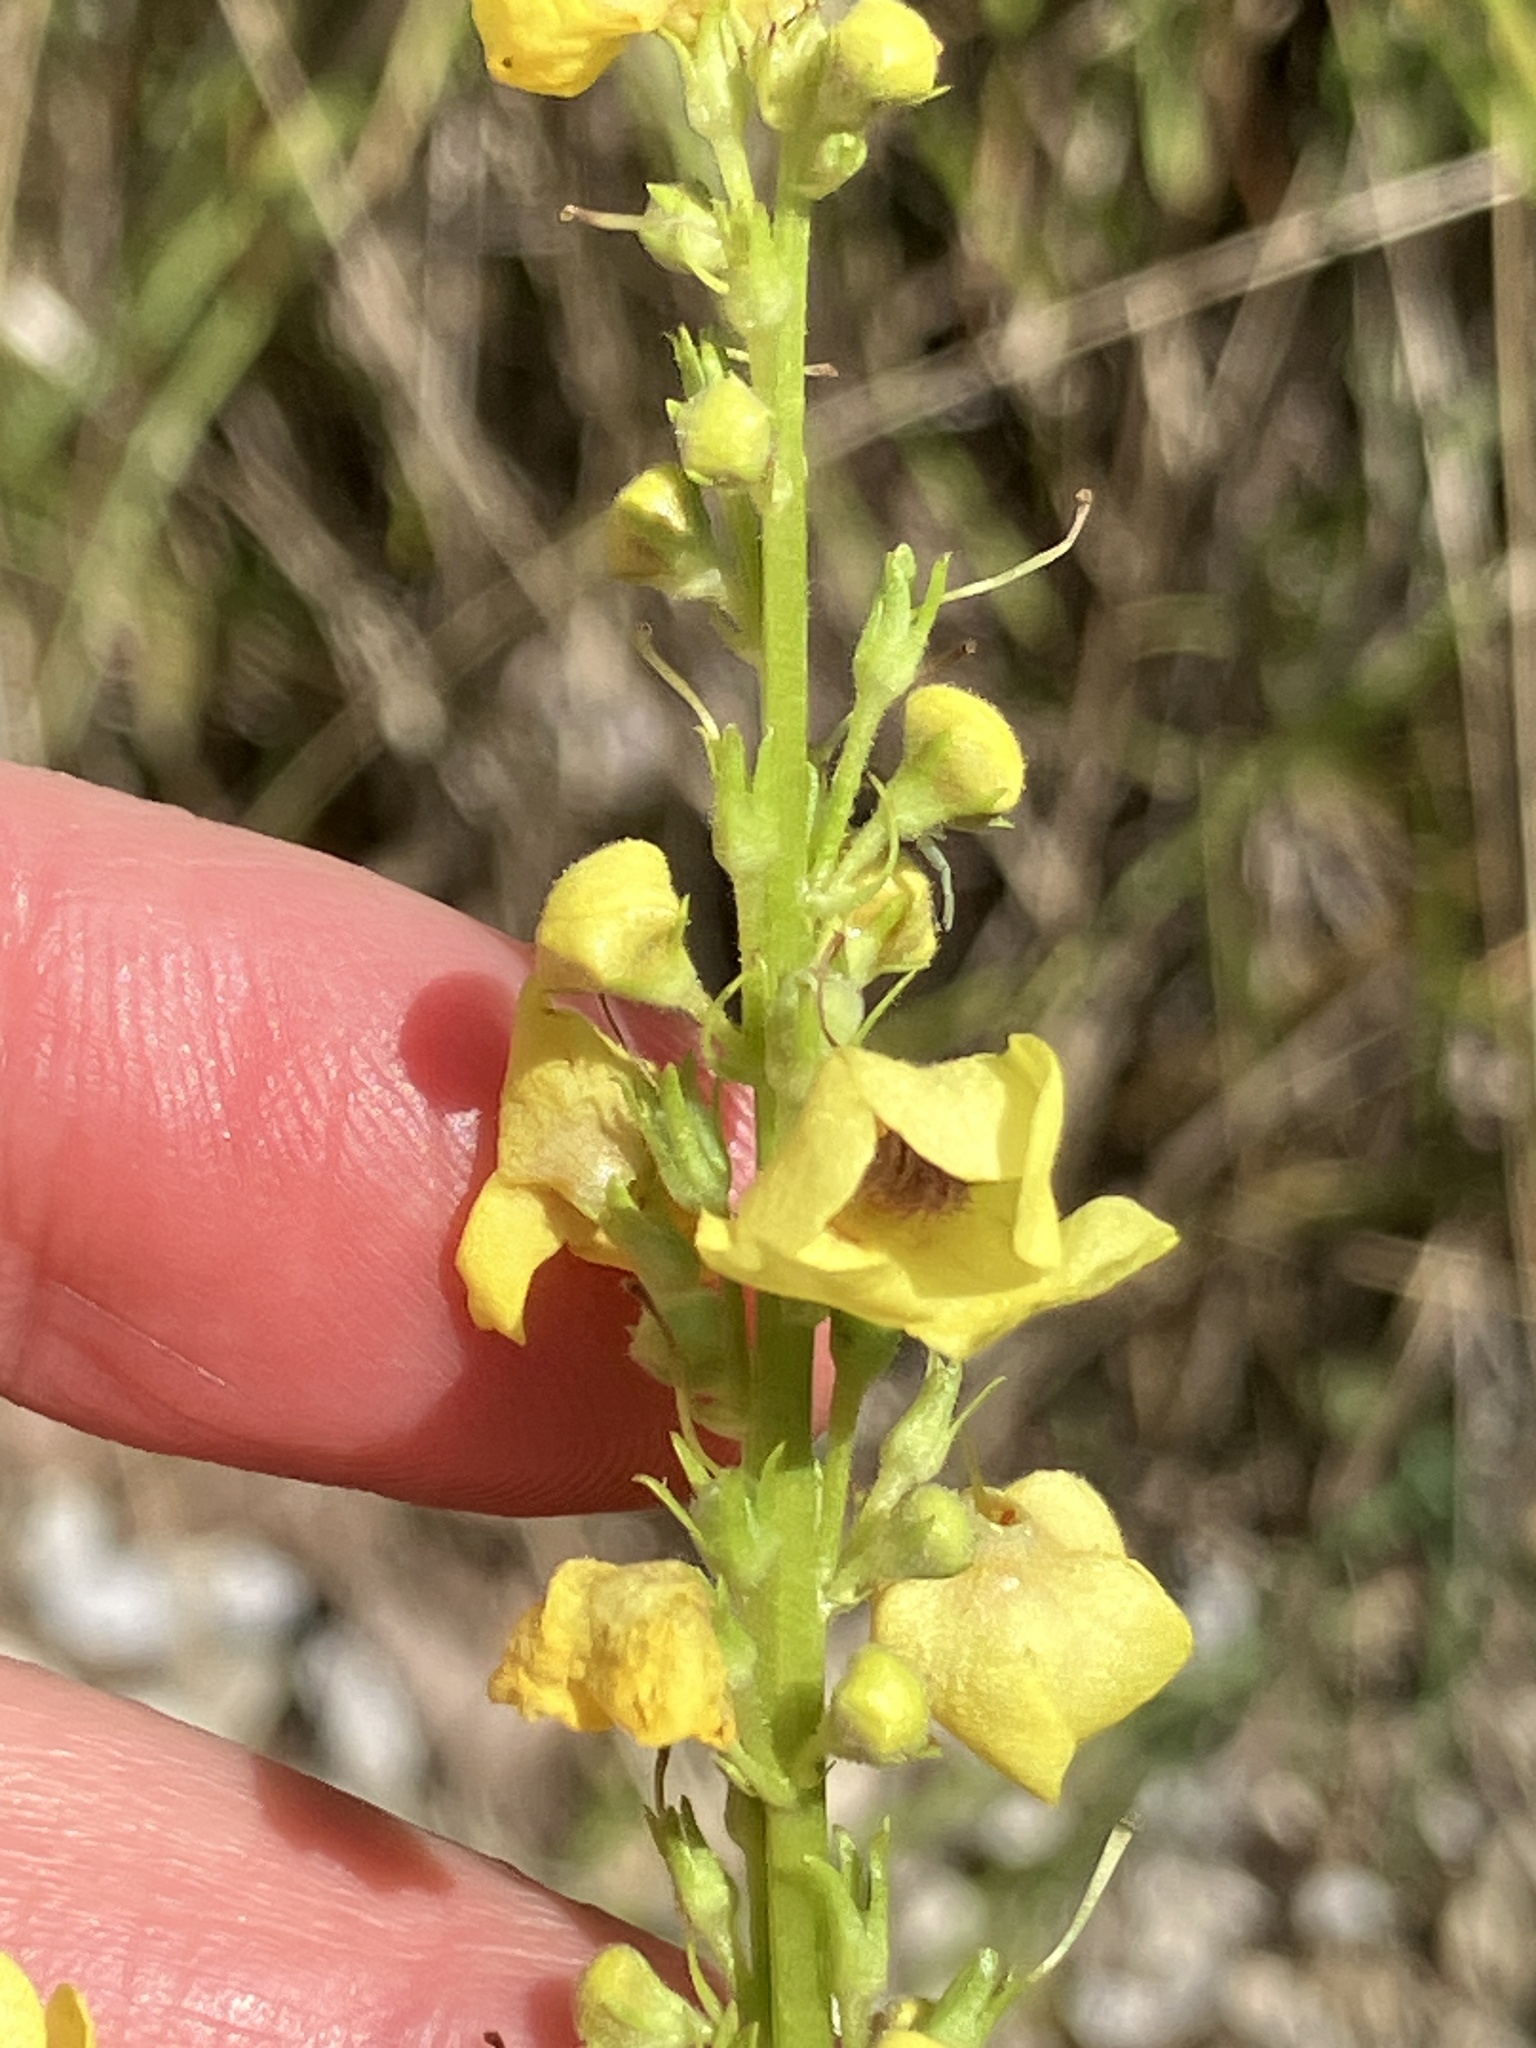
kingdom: Plantae
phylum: Tracheophyta
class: Magnoliopsida
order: Lamiales
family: Scrophulariaceae
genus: Verbascum
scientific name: Verbascum nigrum
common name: Dark mullein
